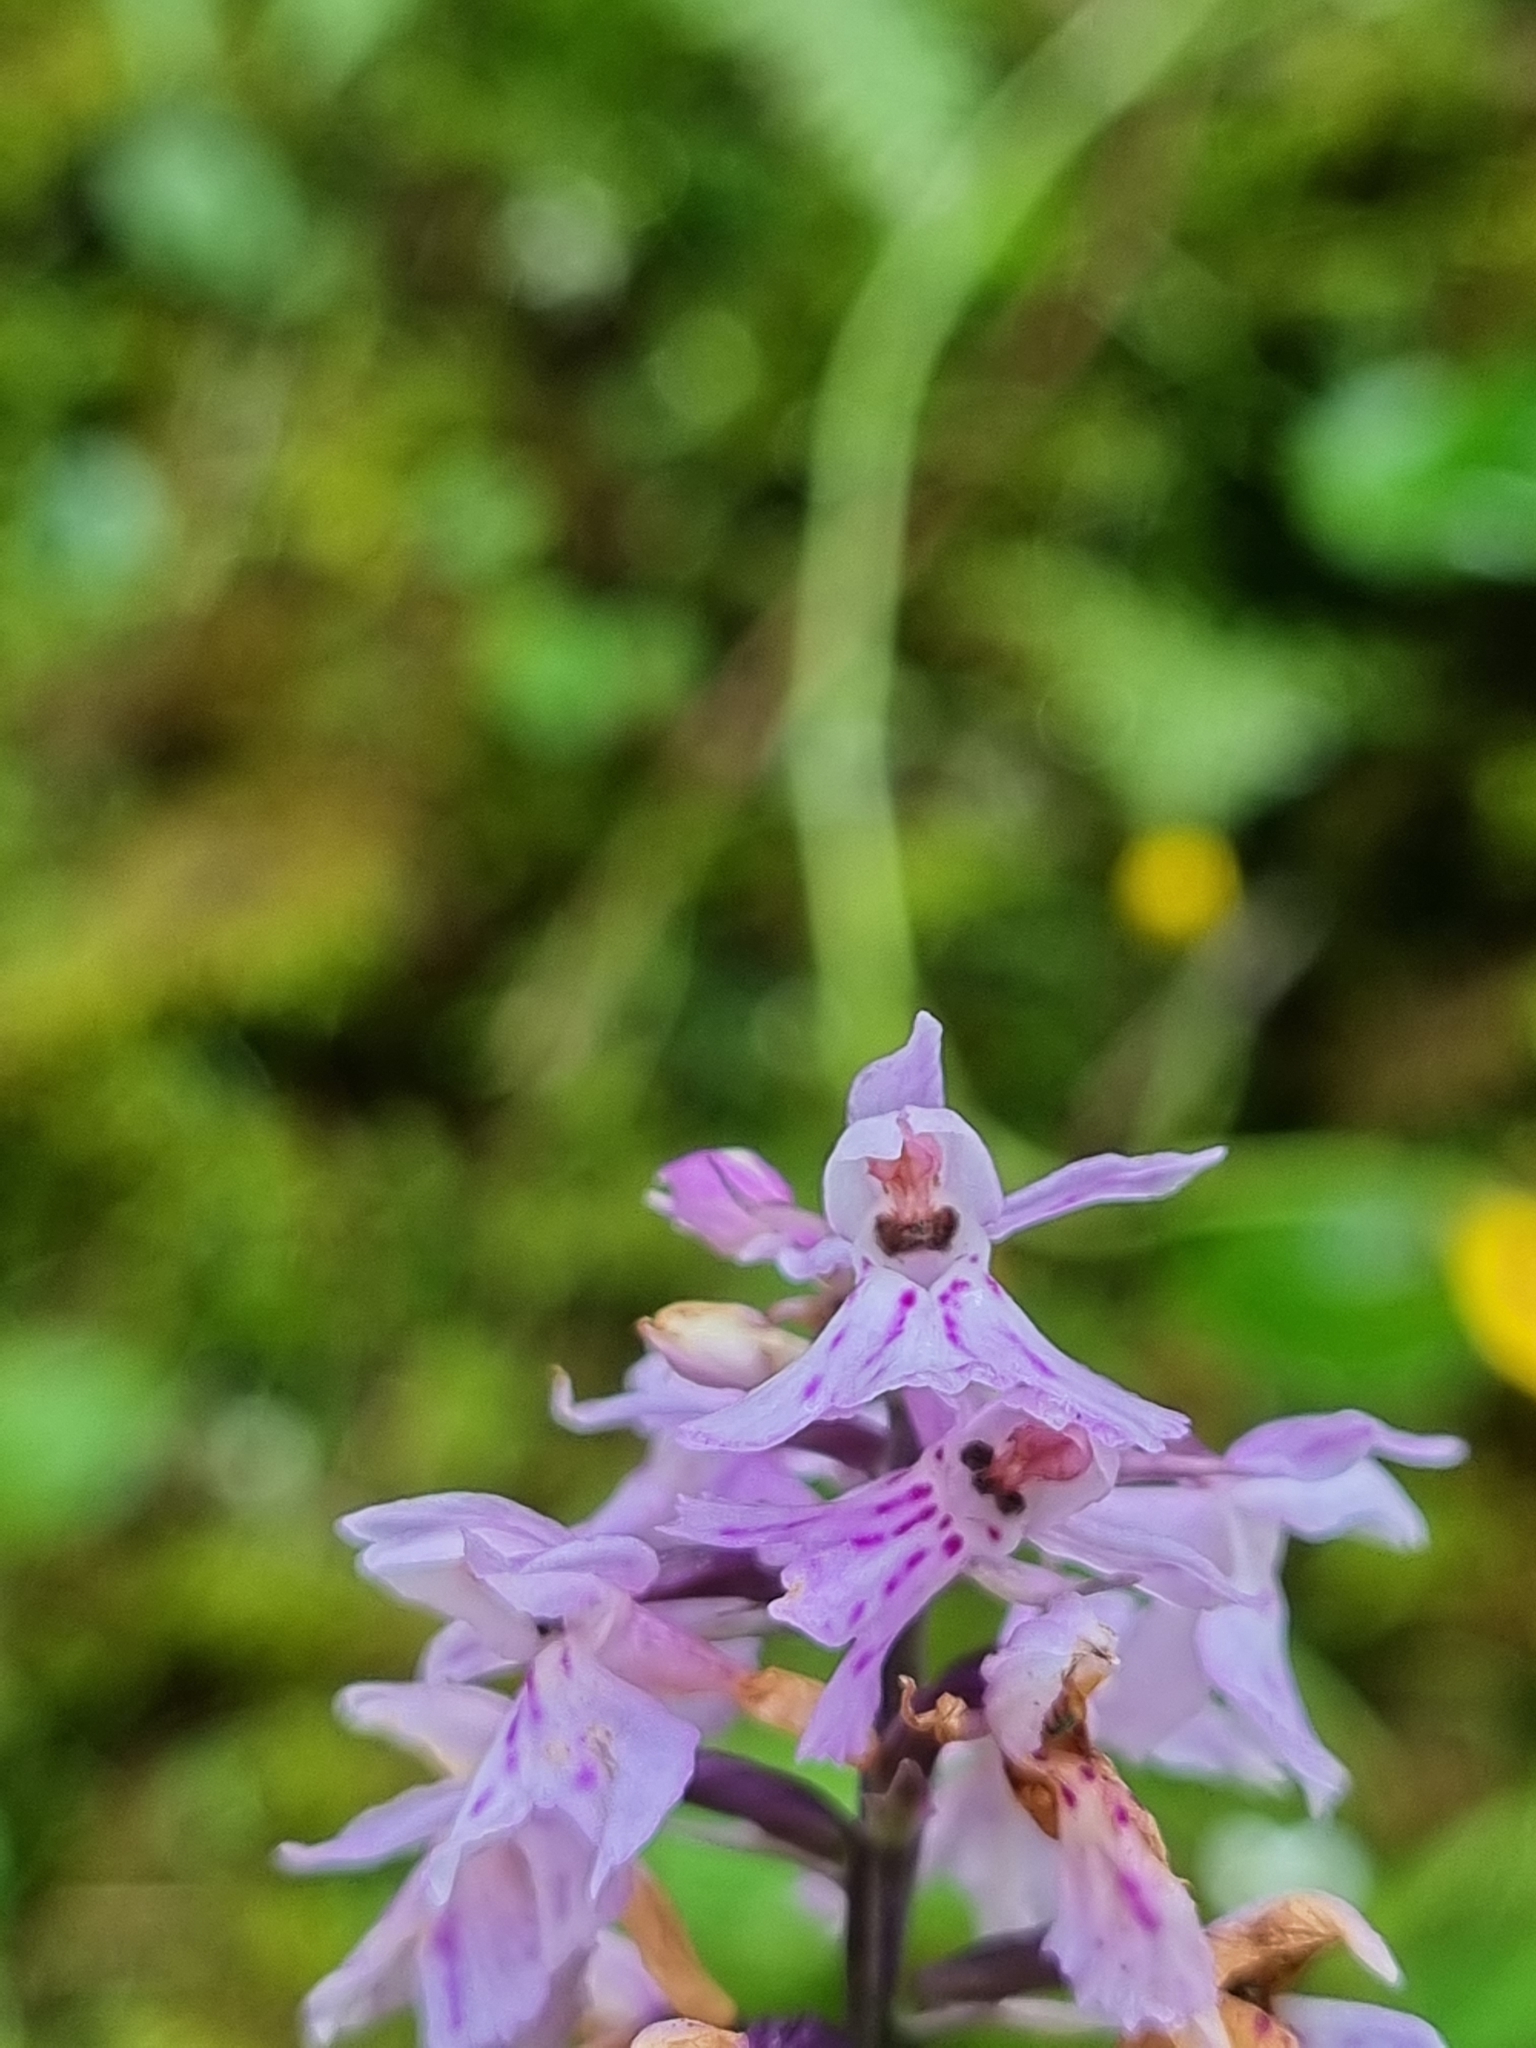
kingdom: Plantae
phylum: Tracheophyta
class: Liliopsida
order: Asparagales
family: Orchidaceae
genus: Dactylorhiza
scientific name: Dactylorhiza maculata
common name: Heath spotted-orchid
